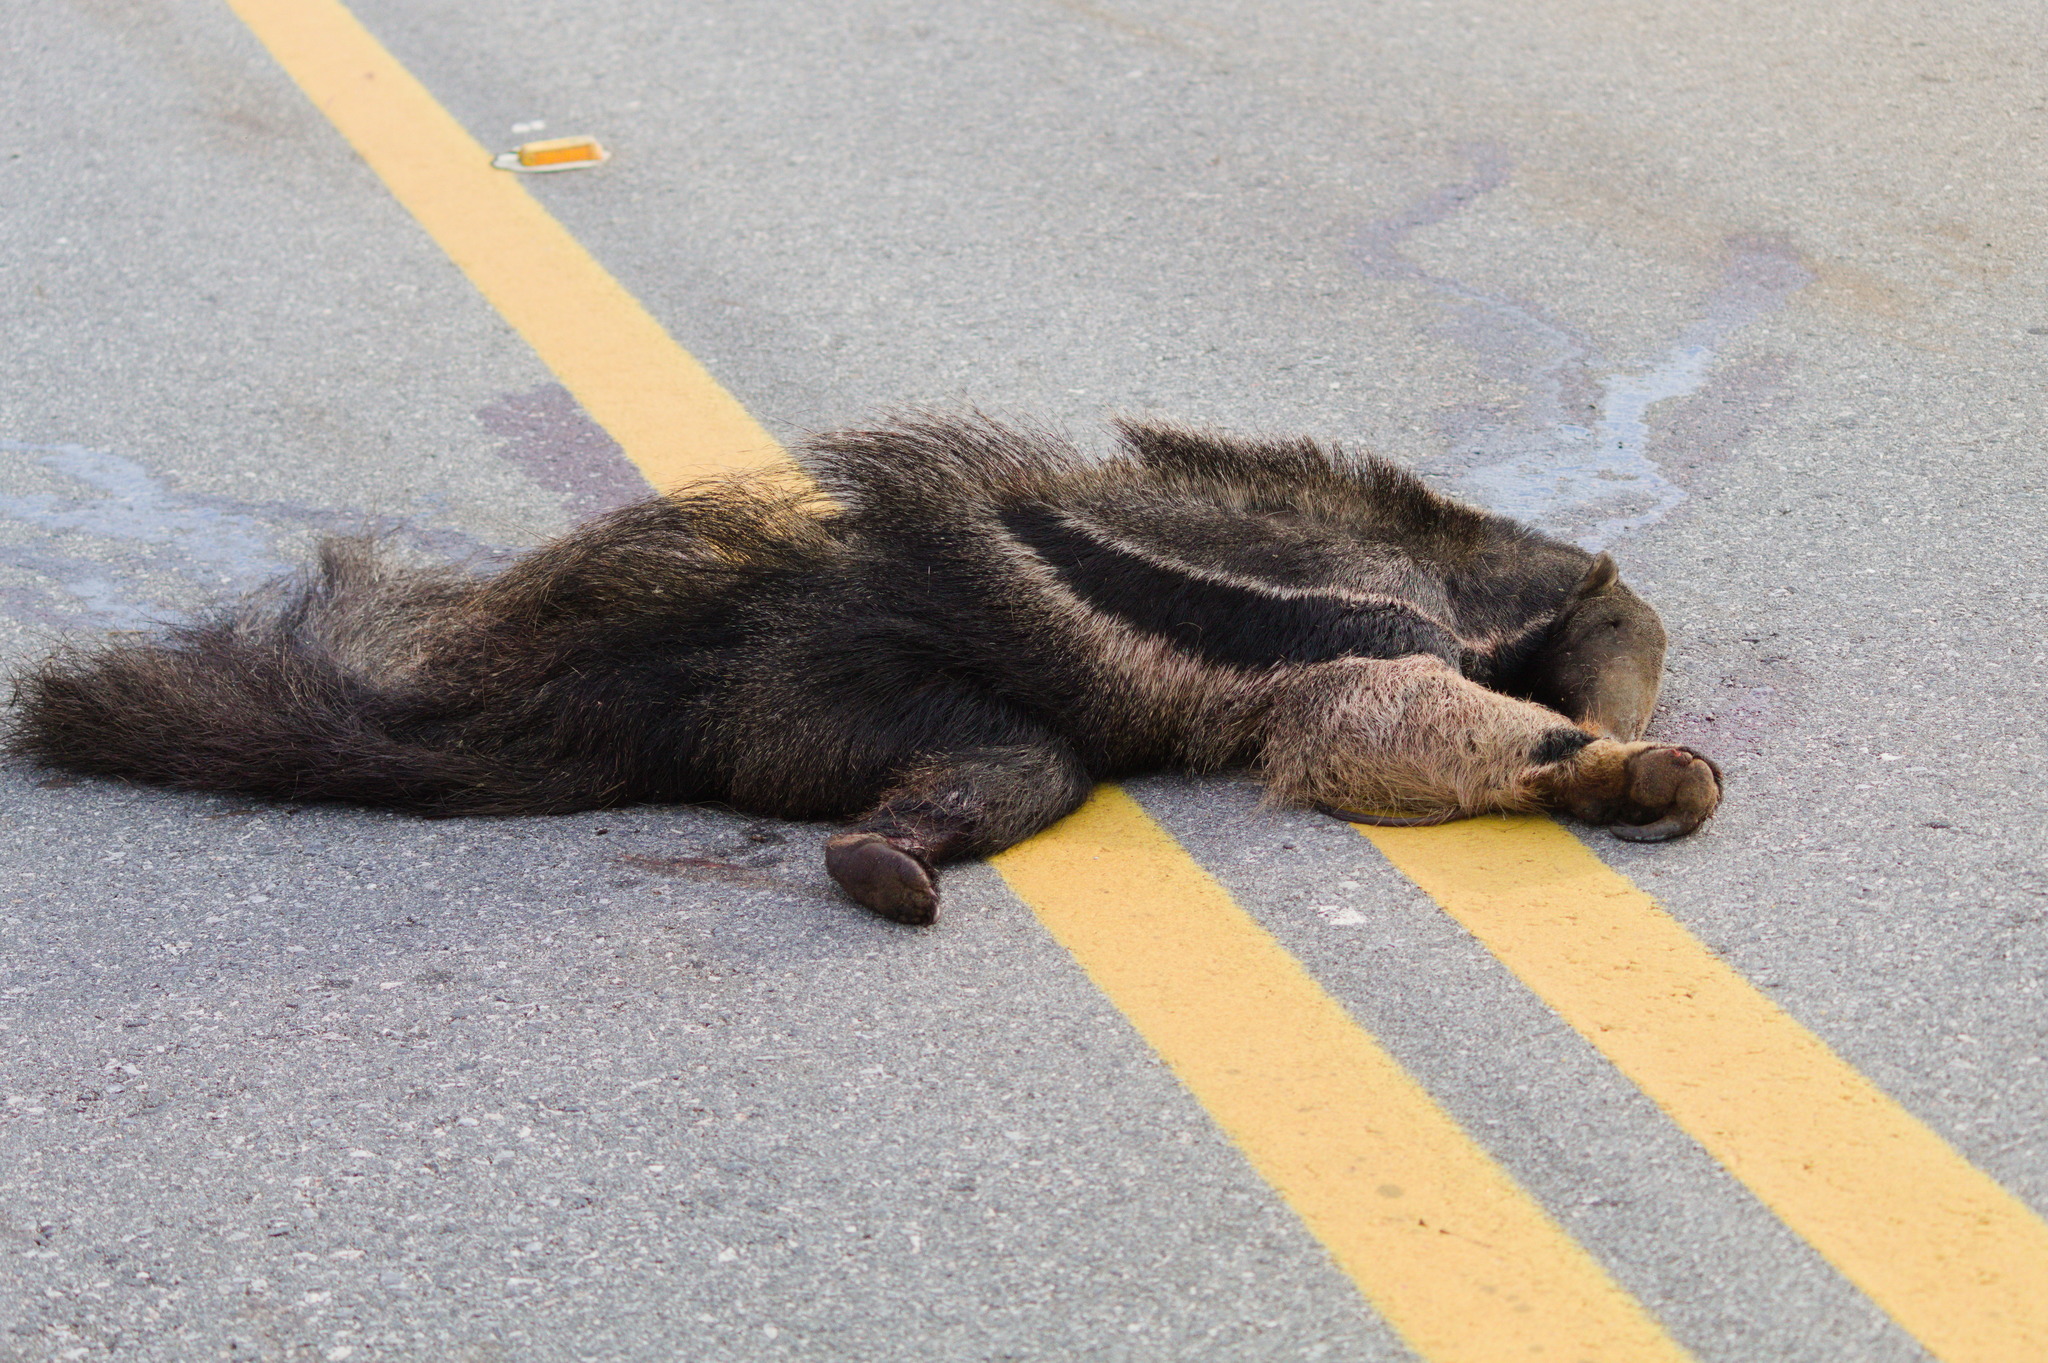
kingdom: Animalia
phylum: Chordata
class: Mammalia
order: Pilosa
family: Myrmecophagidae
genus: Myrmecophaga
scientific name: Myrmecophaga tridactyla
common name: Giant anteater
